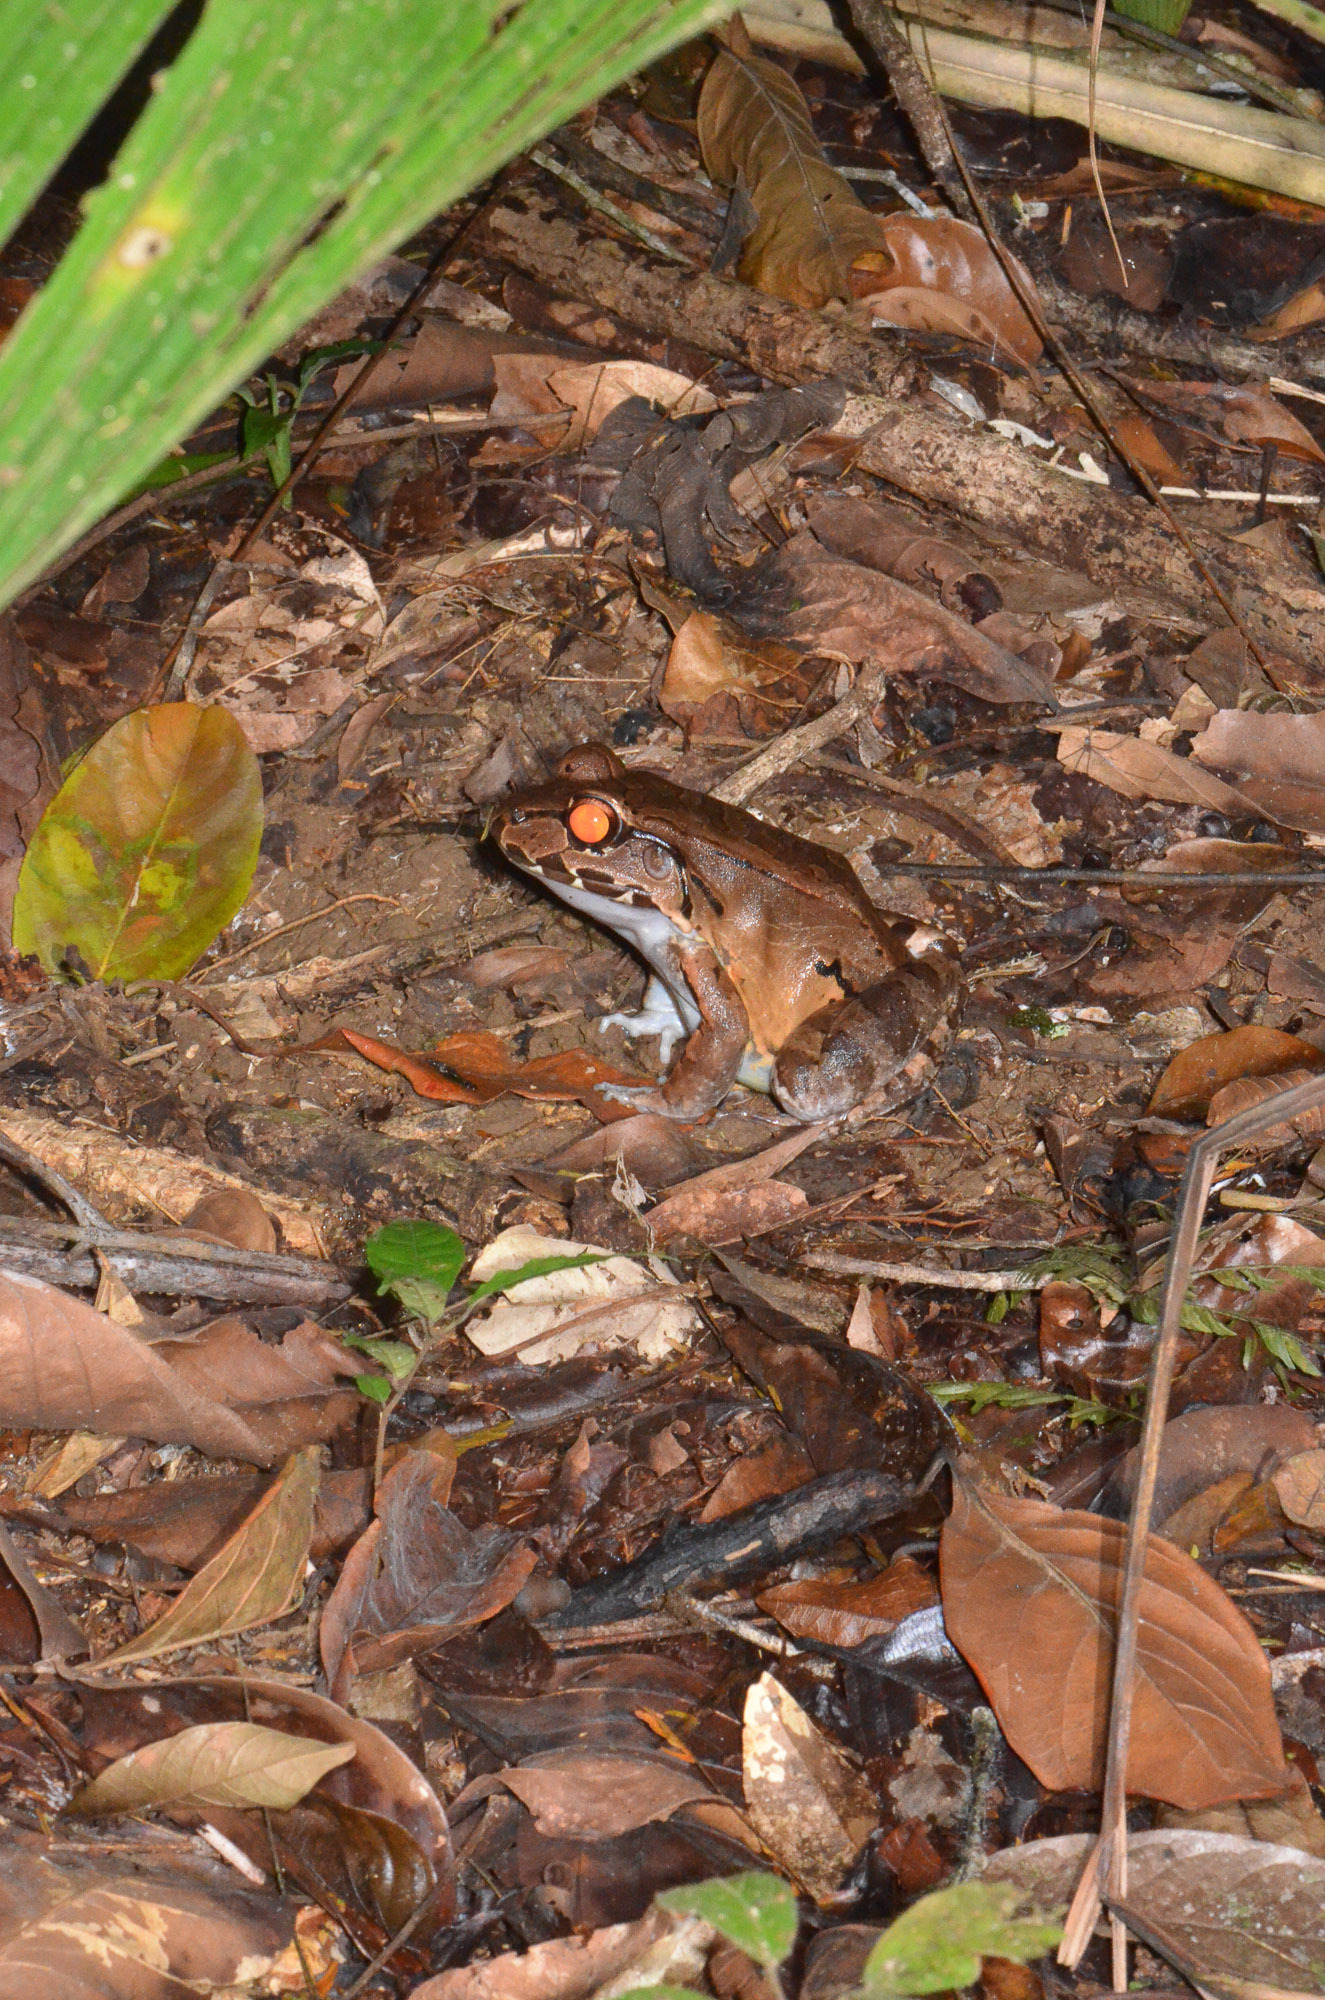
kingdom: Animalia
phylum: Chordata
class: Amphibia
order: Anura
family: Leptodactylidae
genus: Leptodactylus
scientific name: Leptodactylus savagei
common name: Savage's thin-toed frog
